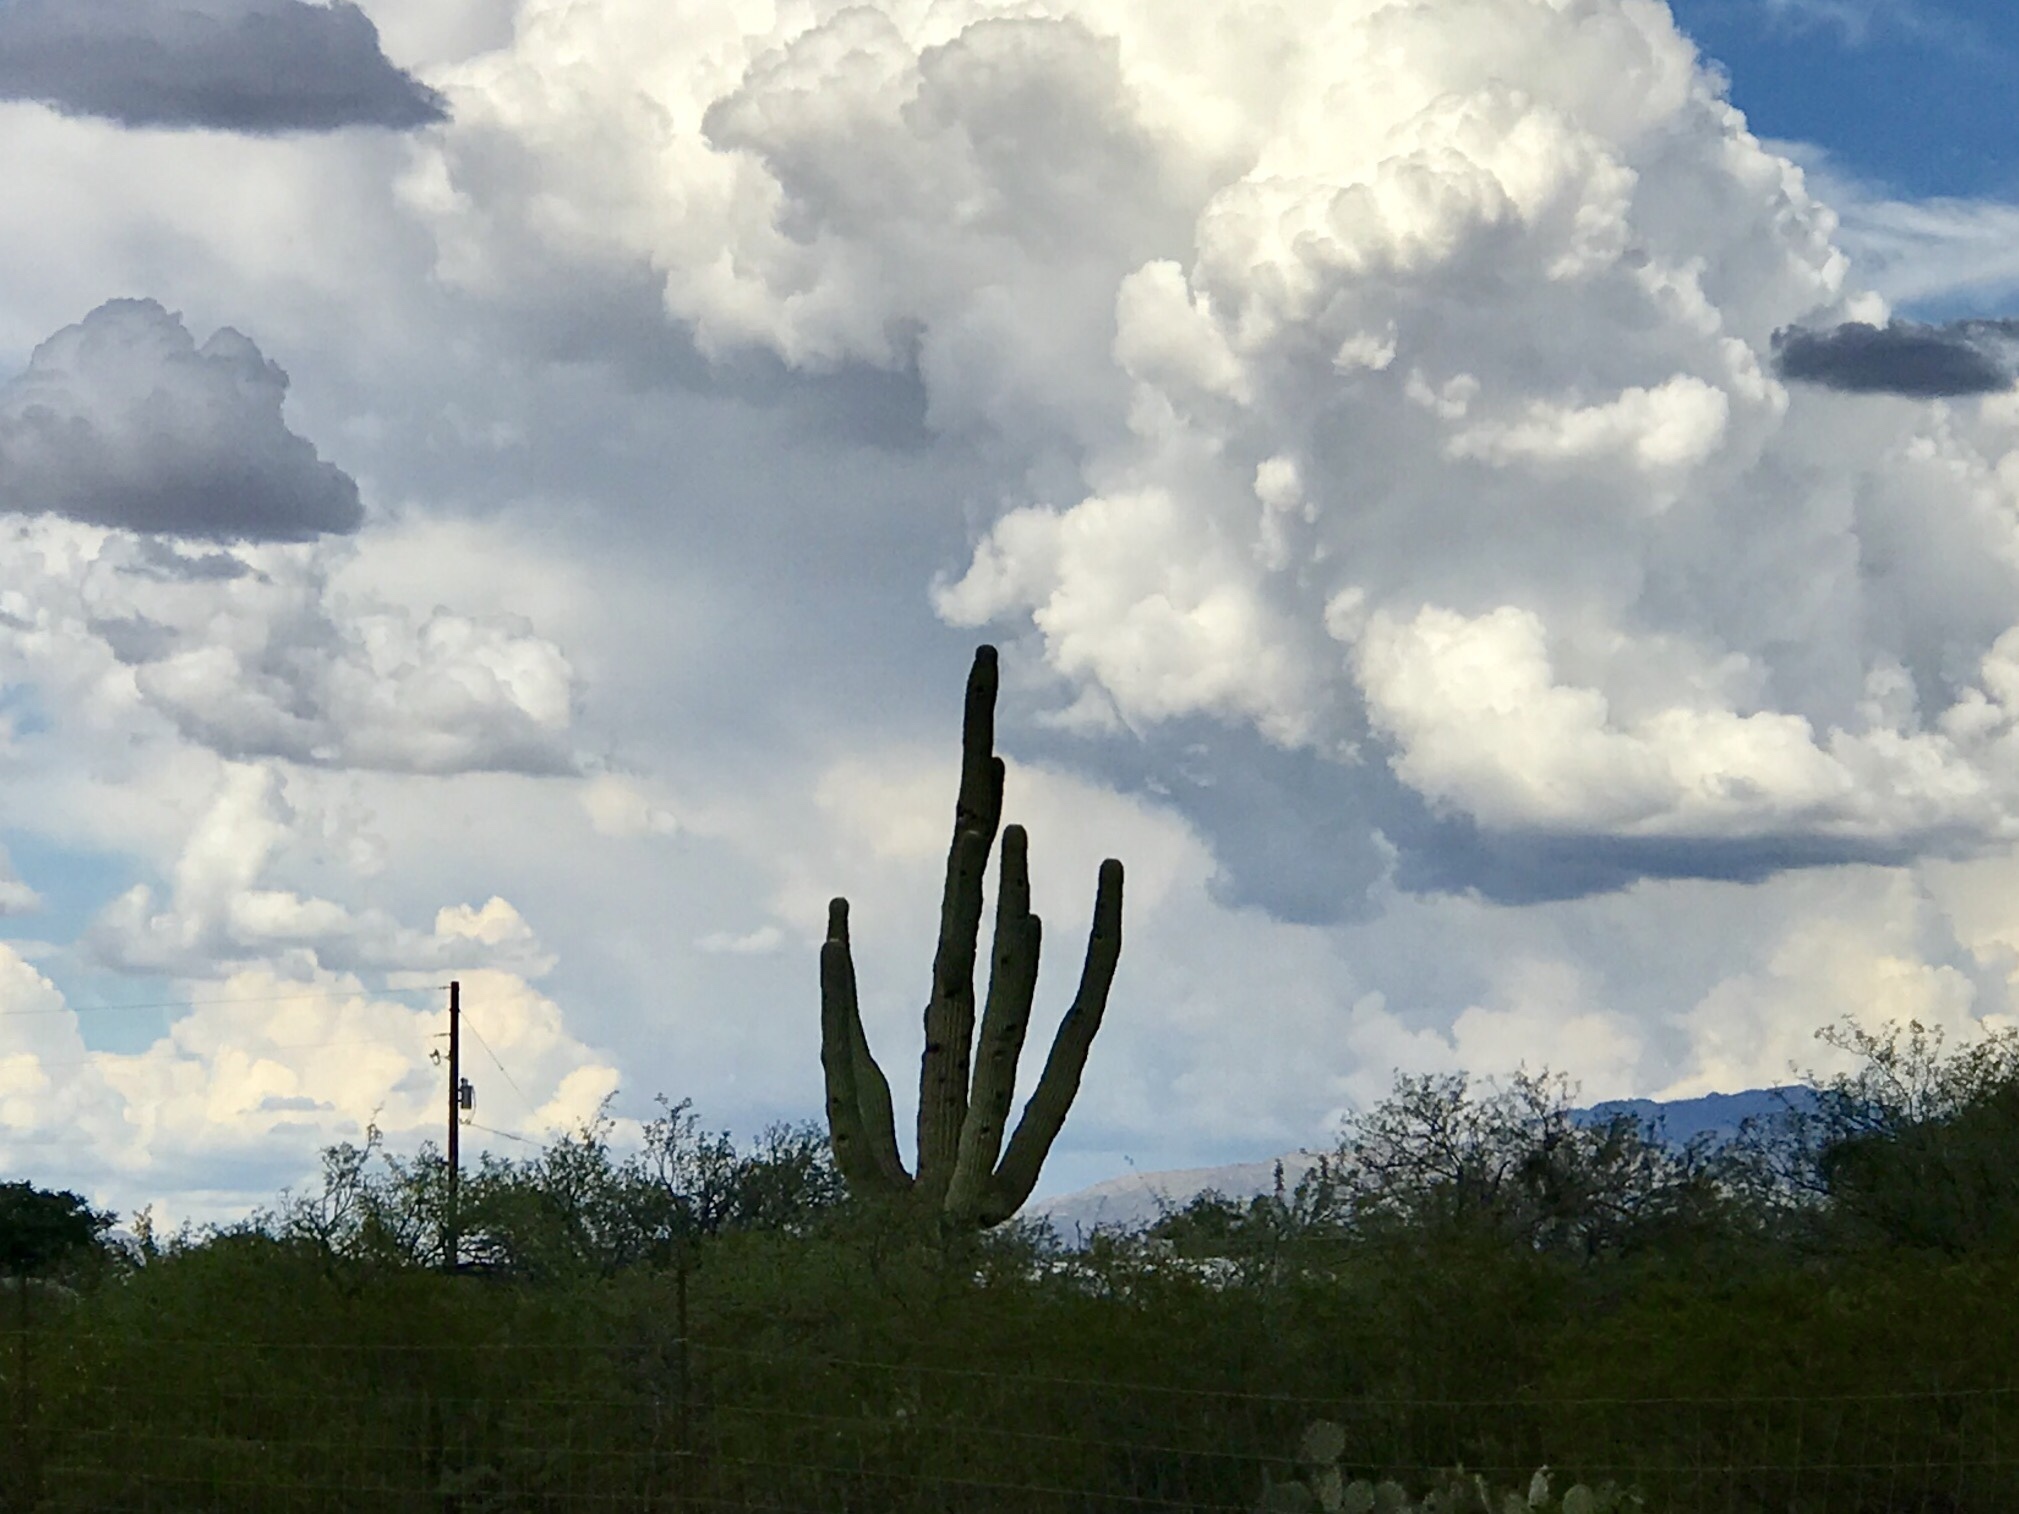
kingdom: Plantae
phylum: Tracheophyta
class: Magnoliopsida
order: Caryophyllales
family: Cactaceae
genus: Carnegiea
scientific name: Carnegiea gigantea
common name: Saguaro
